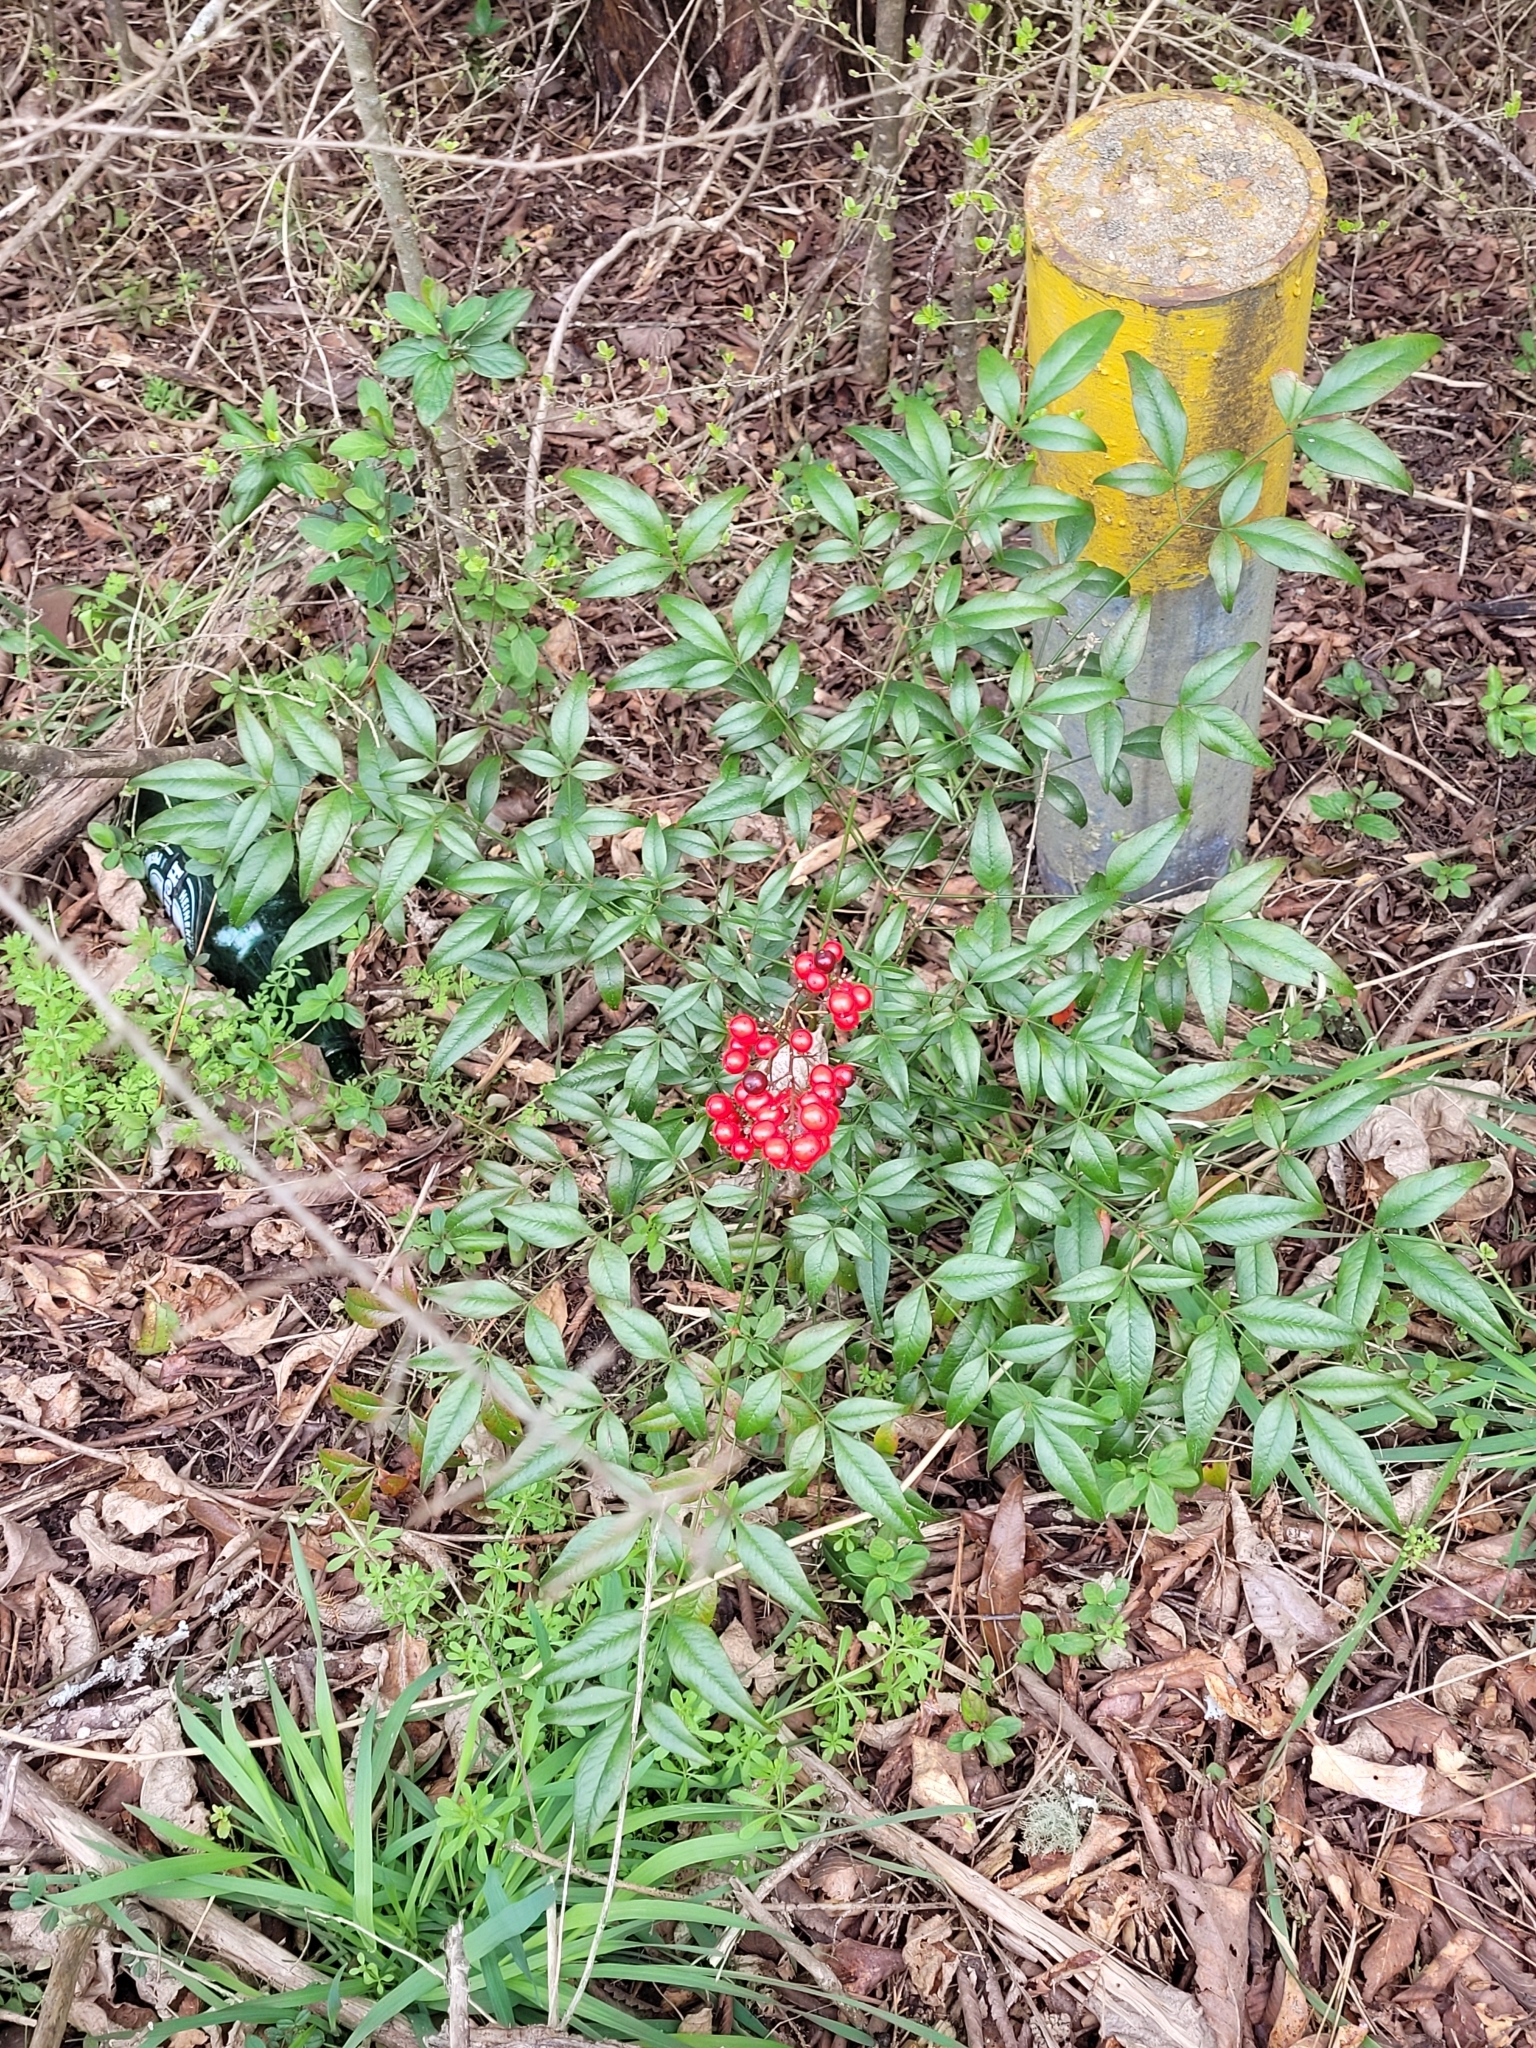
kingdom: Plantae
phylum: Tracheophyta
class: Magnoliopsida
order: Ranunculales
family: Berberidaceae
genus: Nandina
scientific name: Nandina domestica
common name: Sacred bamboo
